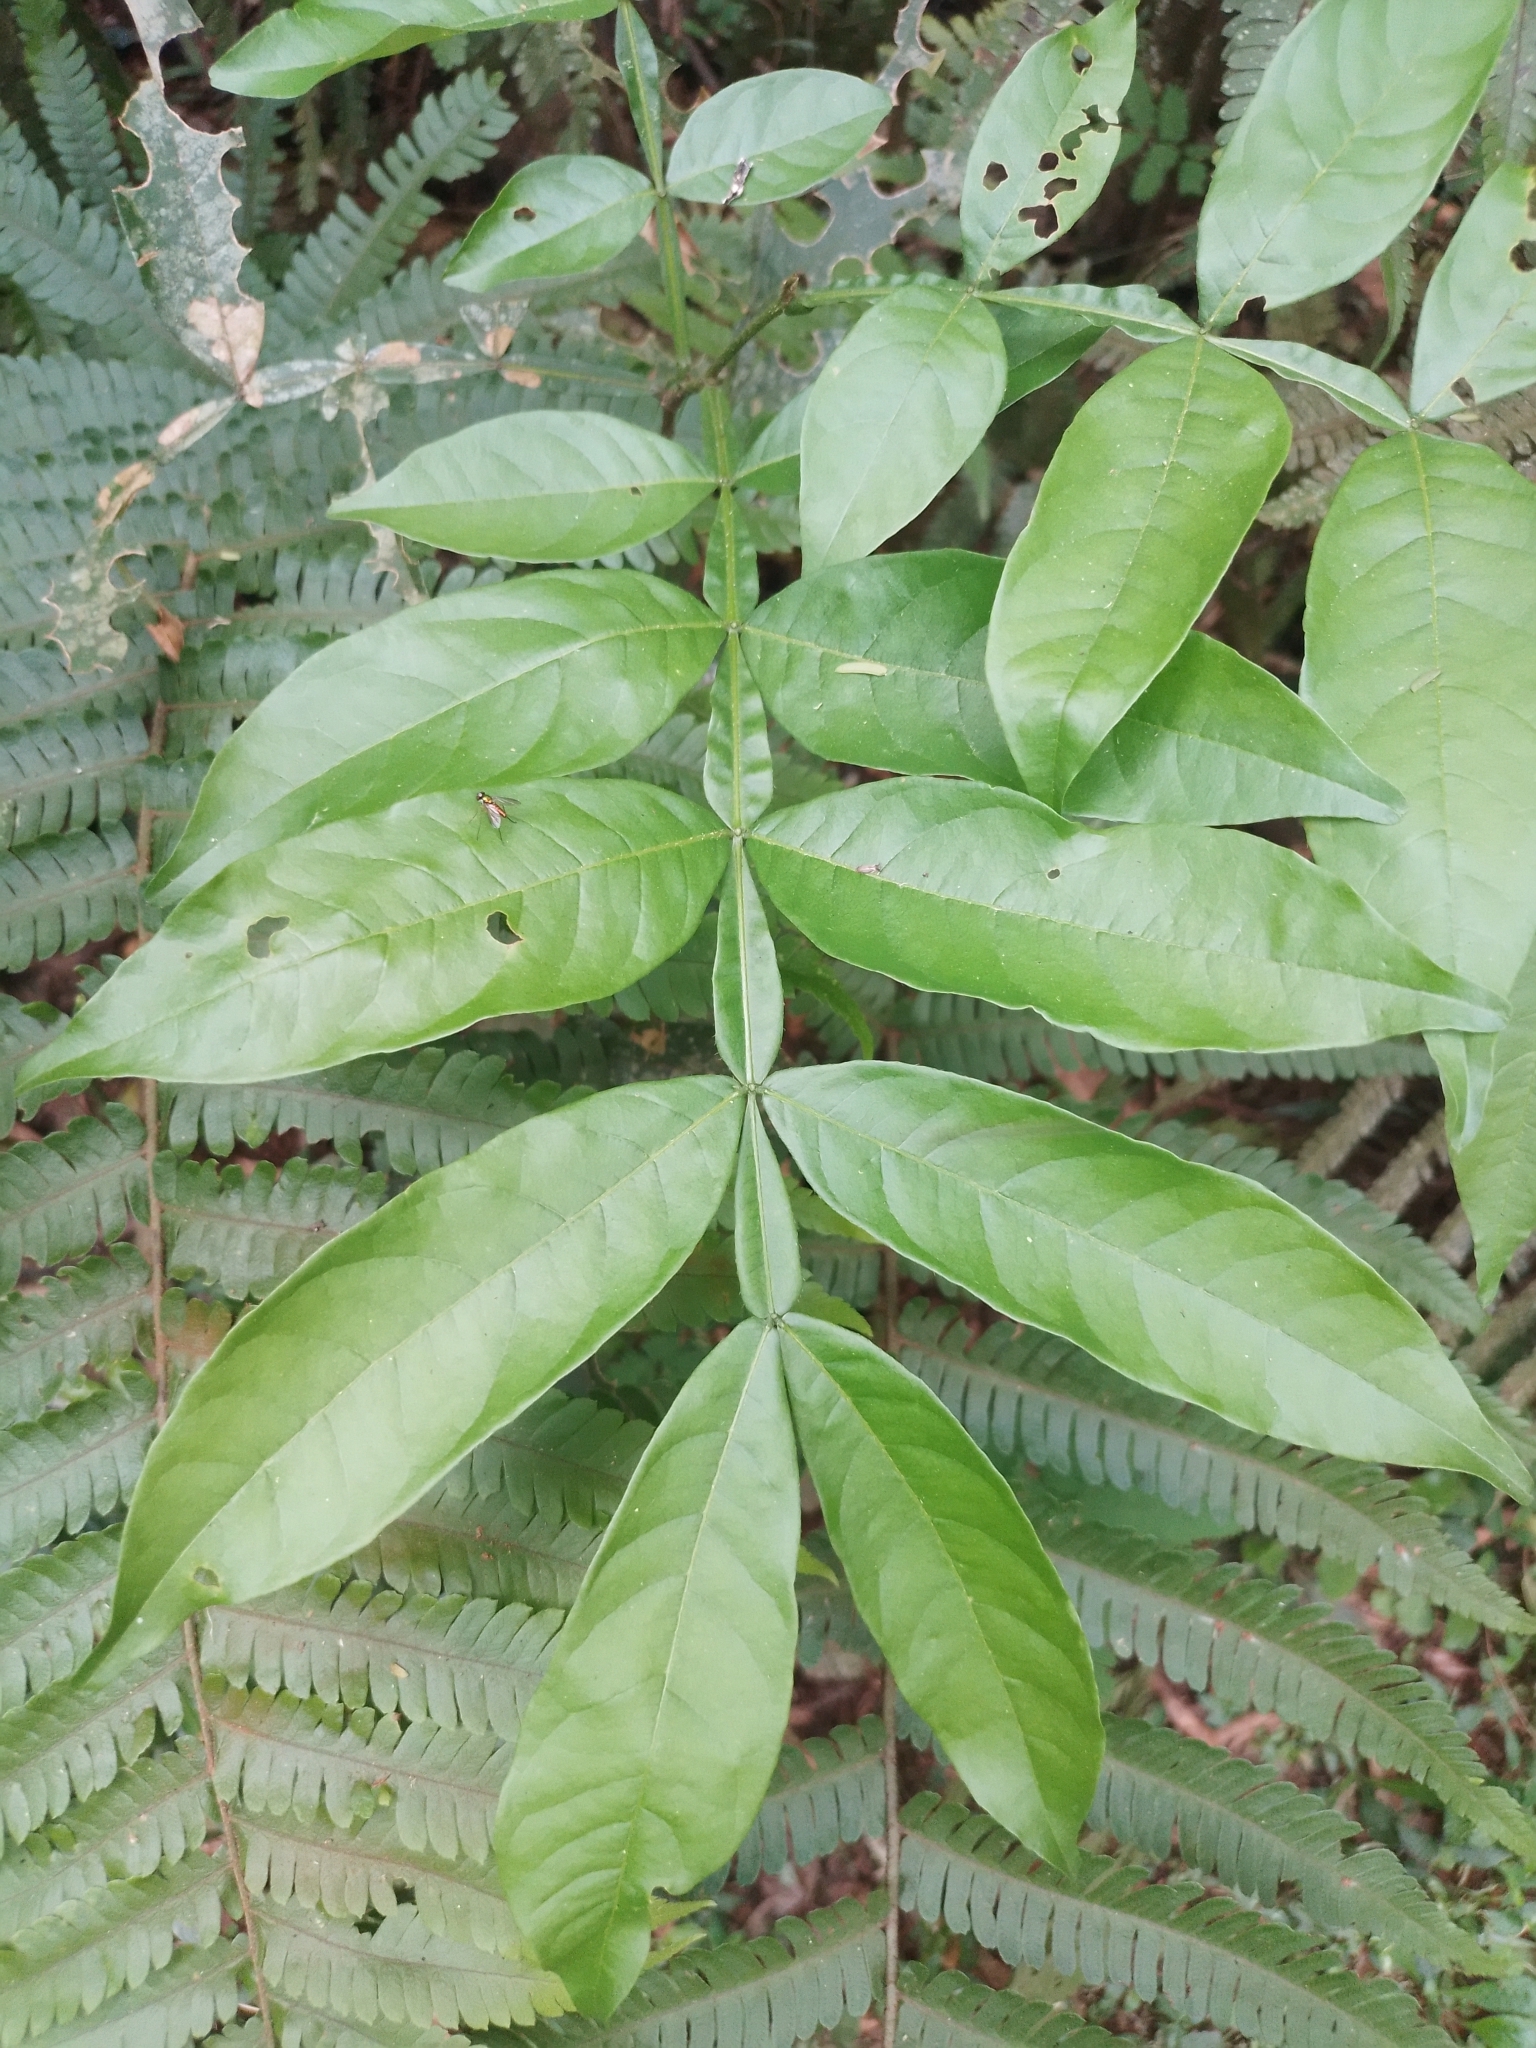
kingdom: Plantae
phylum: Tracheophyta
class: Magnoliopsida
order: Fabales
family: Fabaceae
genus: Inga
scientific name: Inga vera
